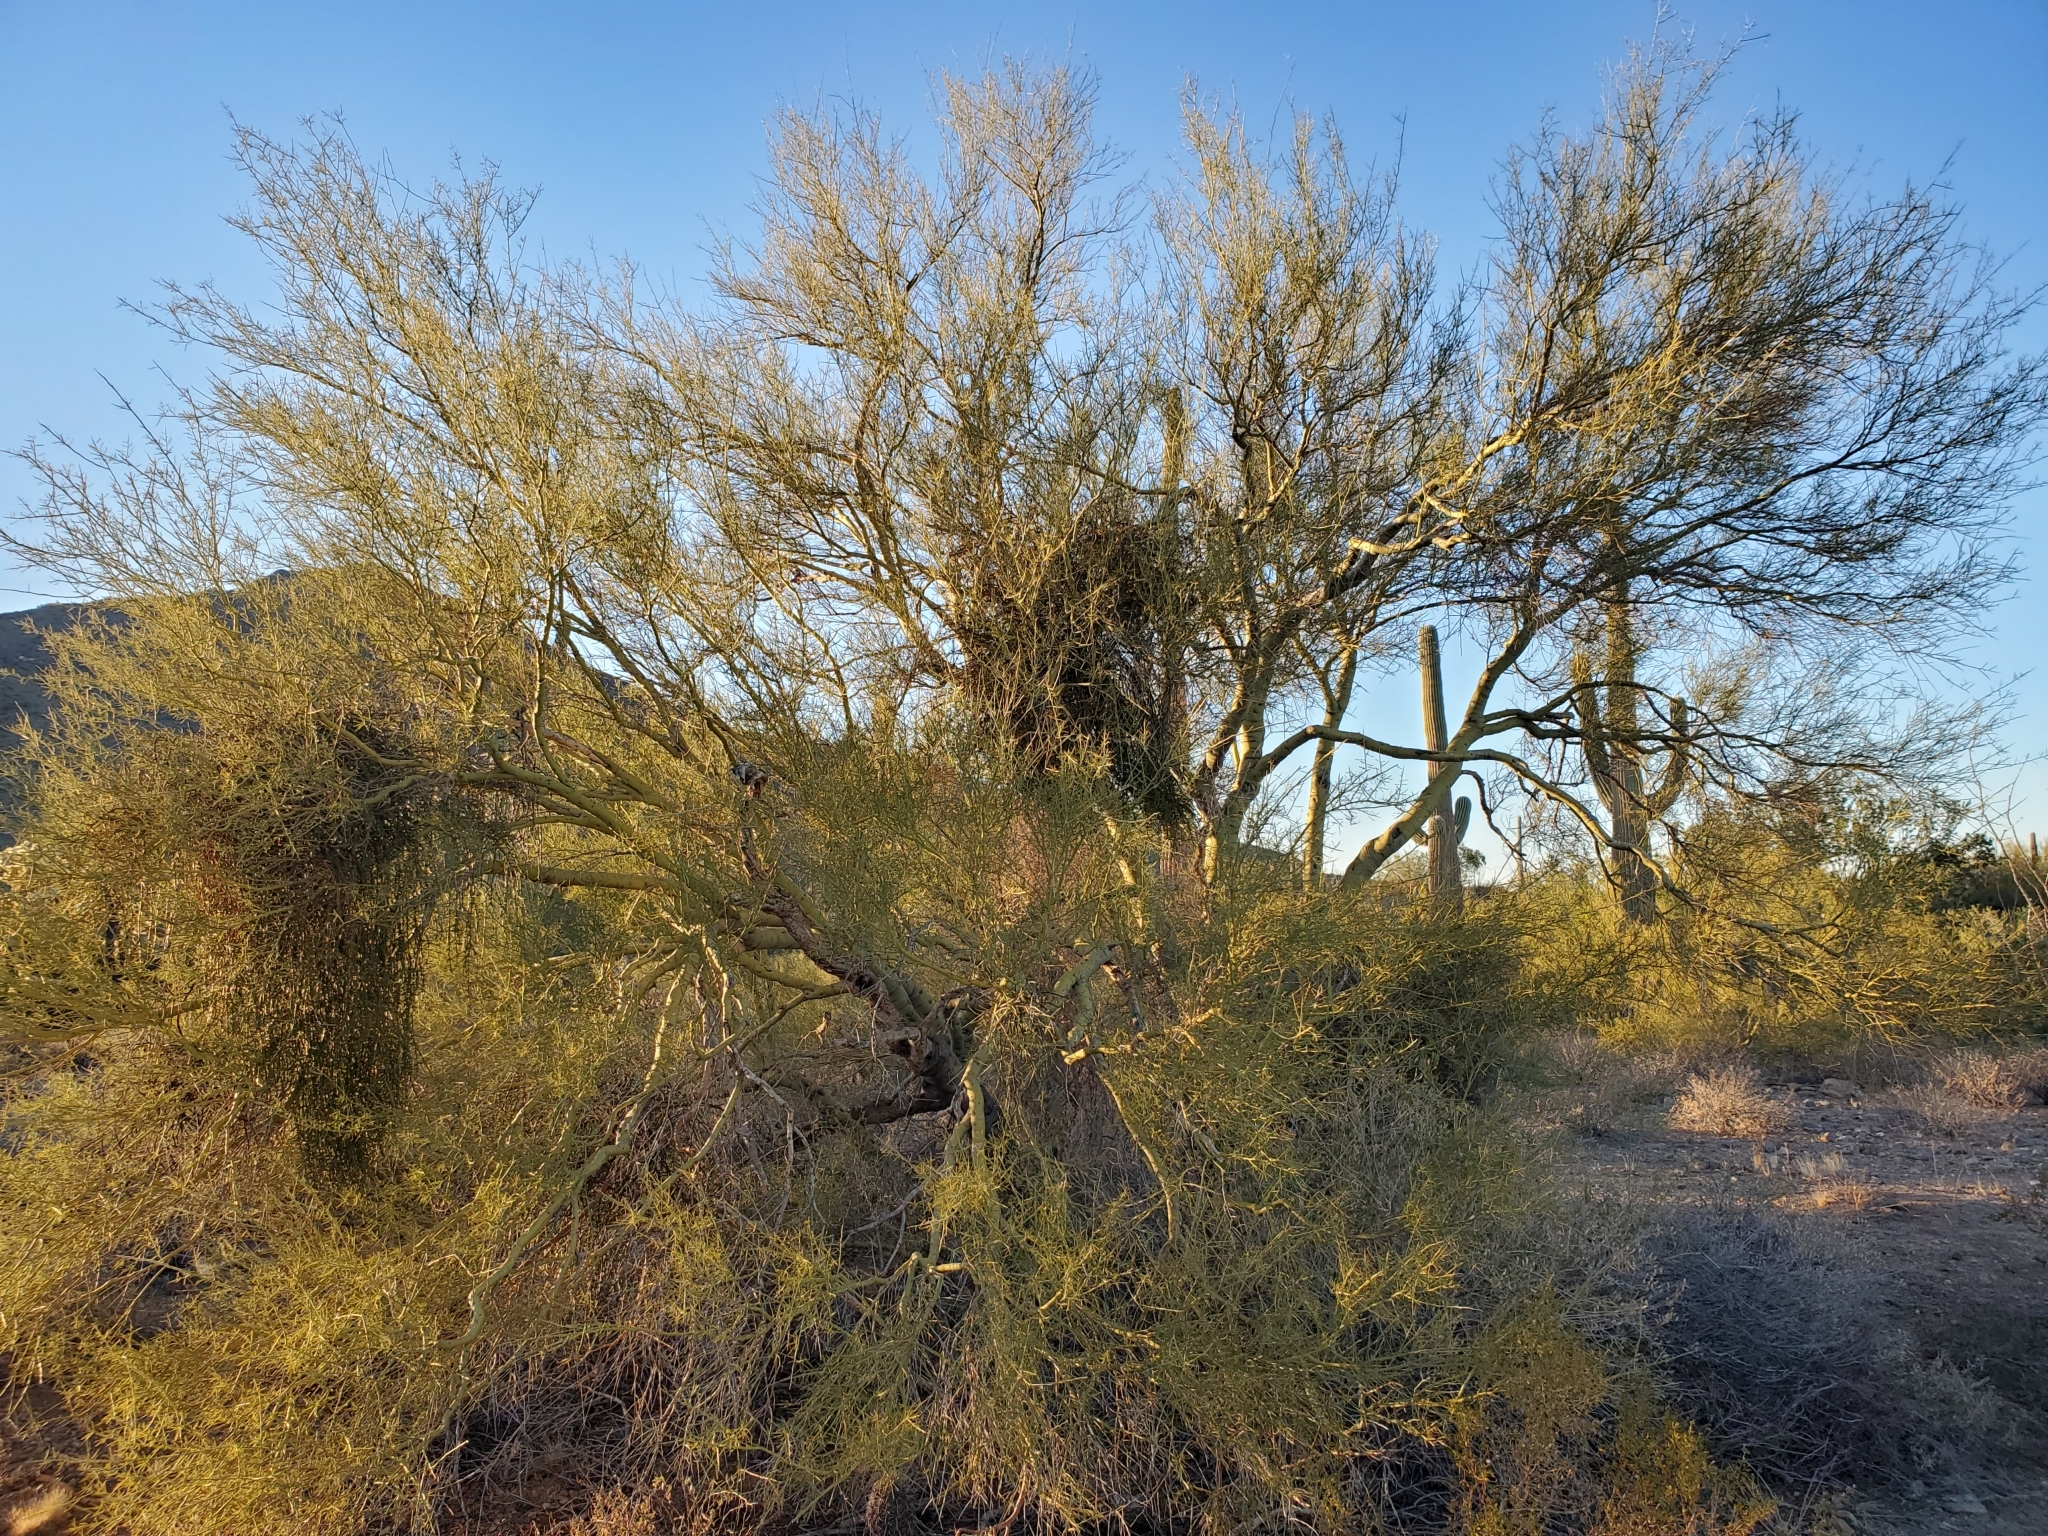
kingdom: Plantae
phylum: Tracheophyta
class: Magnoliopsida
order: Fabales
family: Fabaceae
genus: Parkinsonia
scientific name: Parkinsonia microphylla
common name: Yellow paloverde
